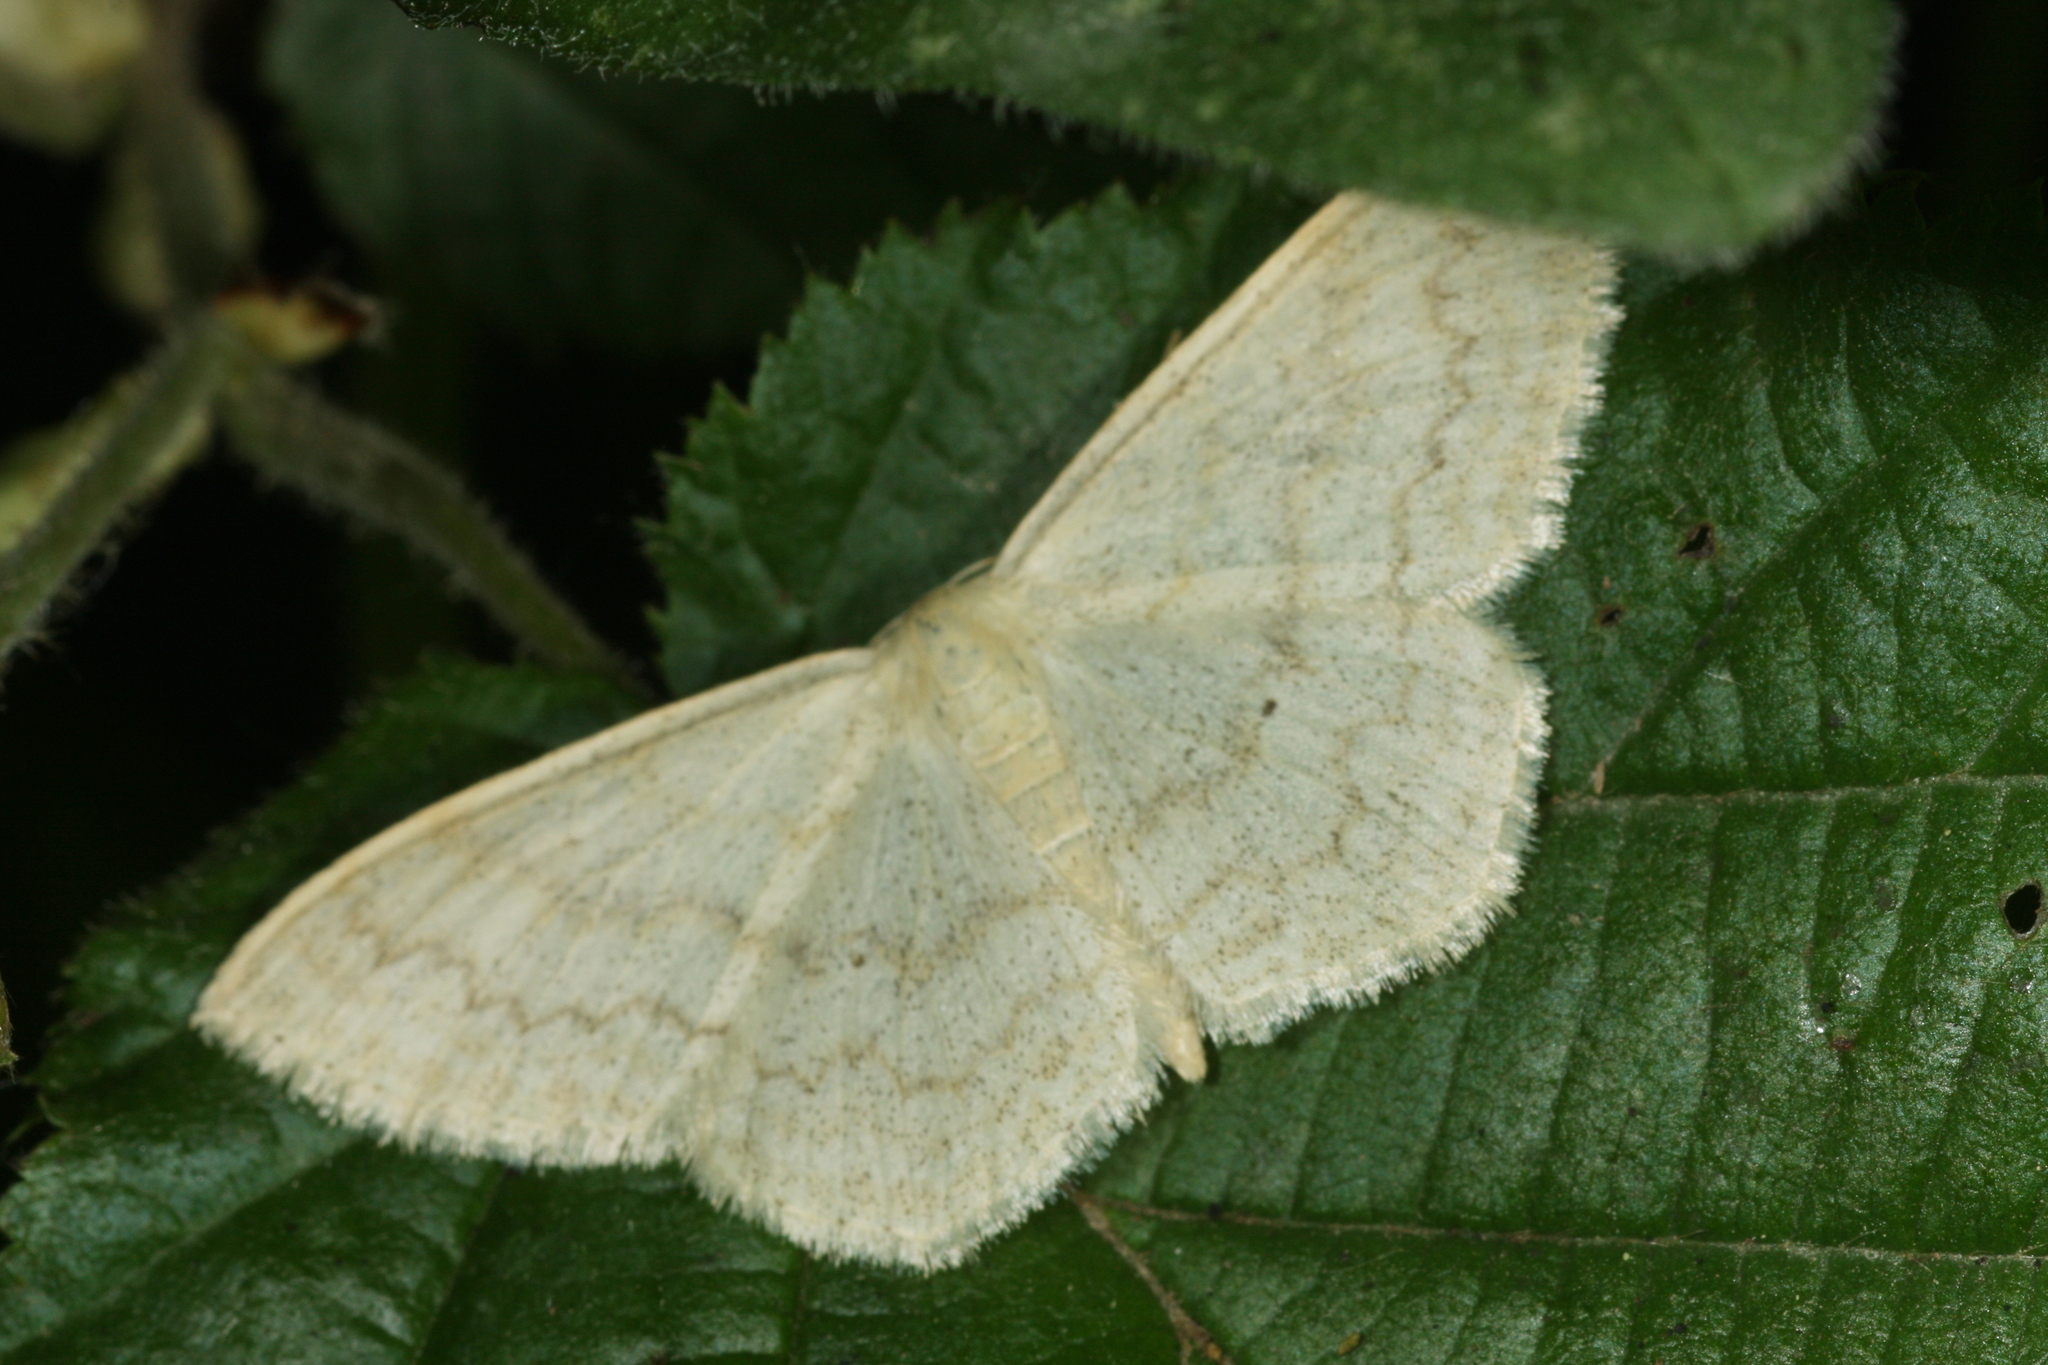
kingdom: Animalia
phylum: Arthropoda
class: Insecta
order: Lepidoptera
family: Geometridae
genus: Scopula
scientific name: Scopula floslactata
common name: Cream wave
